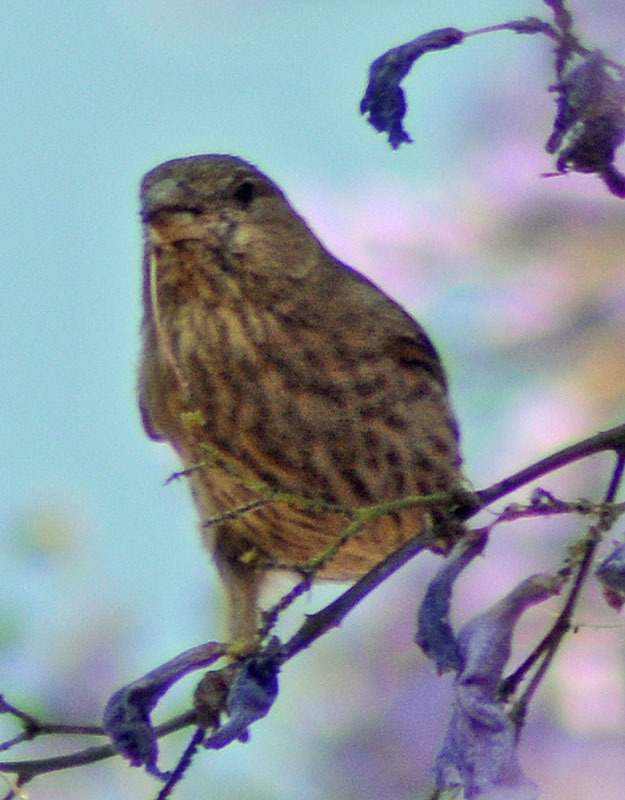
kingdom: Animalia
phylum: Chordata
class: Aves
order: Passeriformes
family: Fringillidae
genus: Haemorhous
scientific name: Haemorhous mexicanus
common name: House finch
